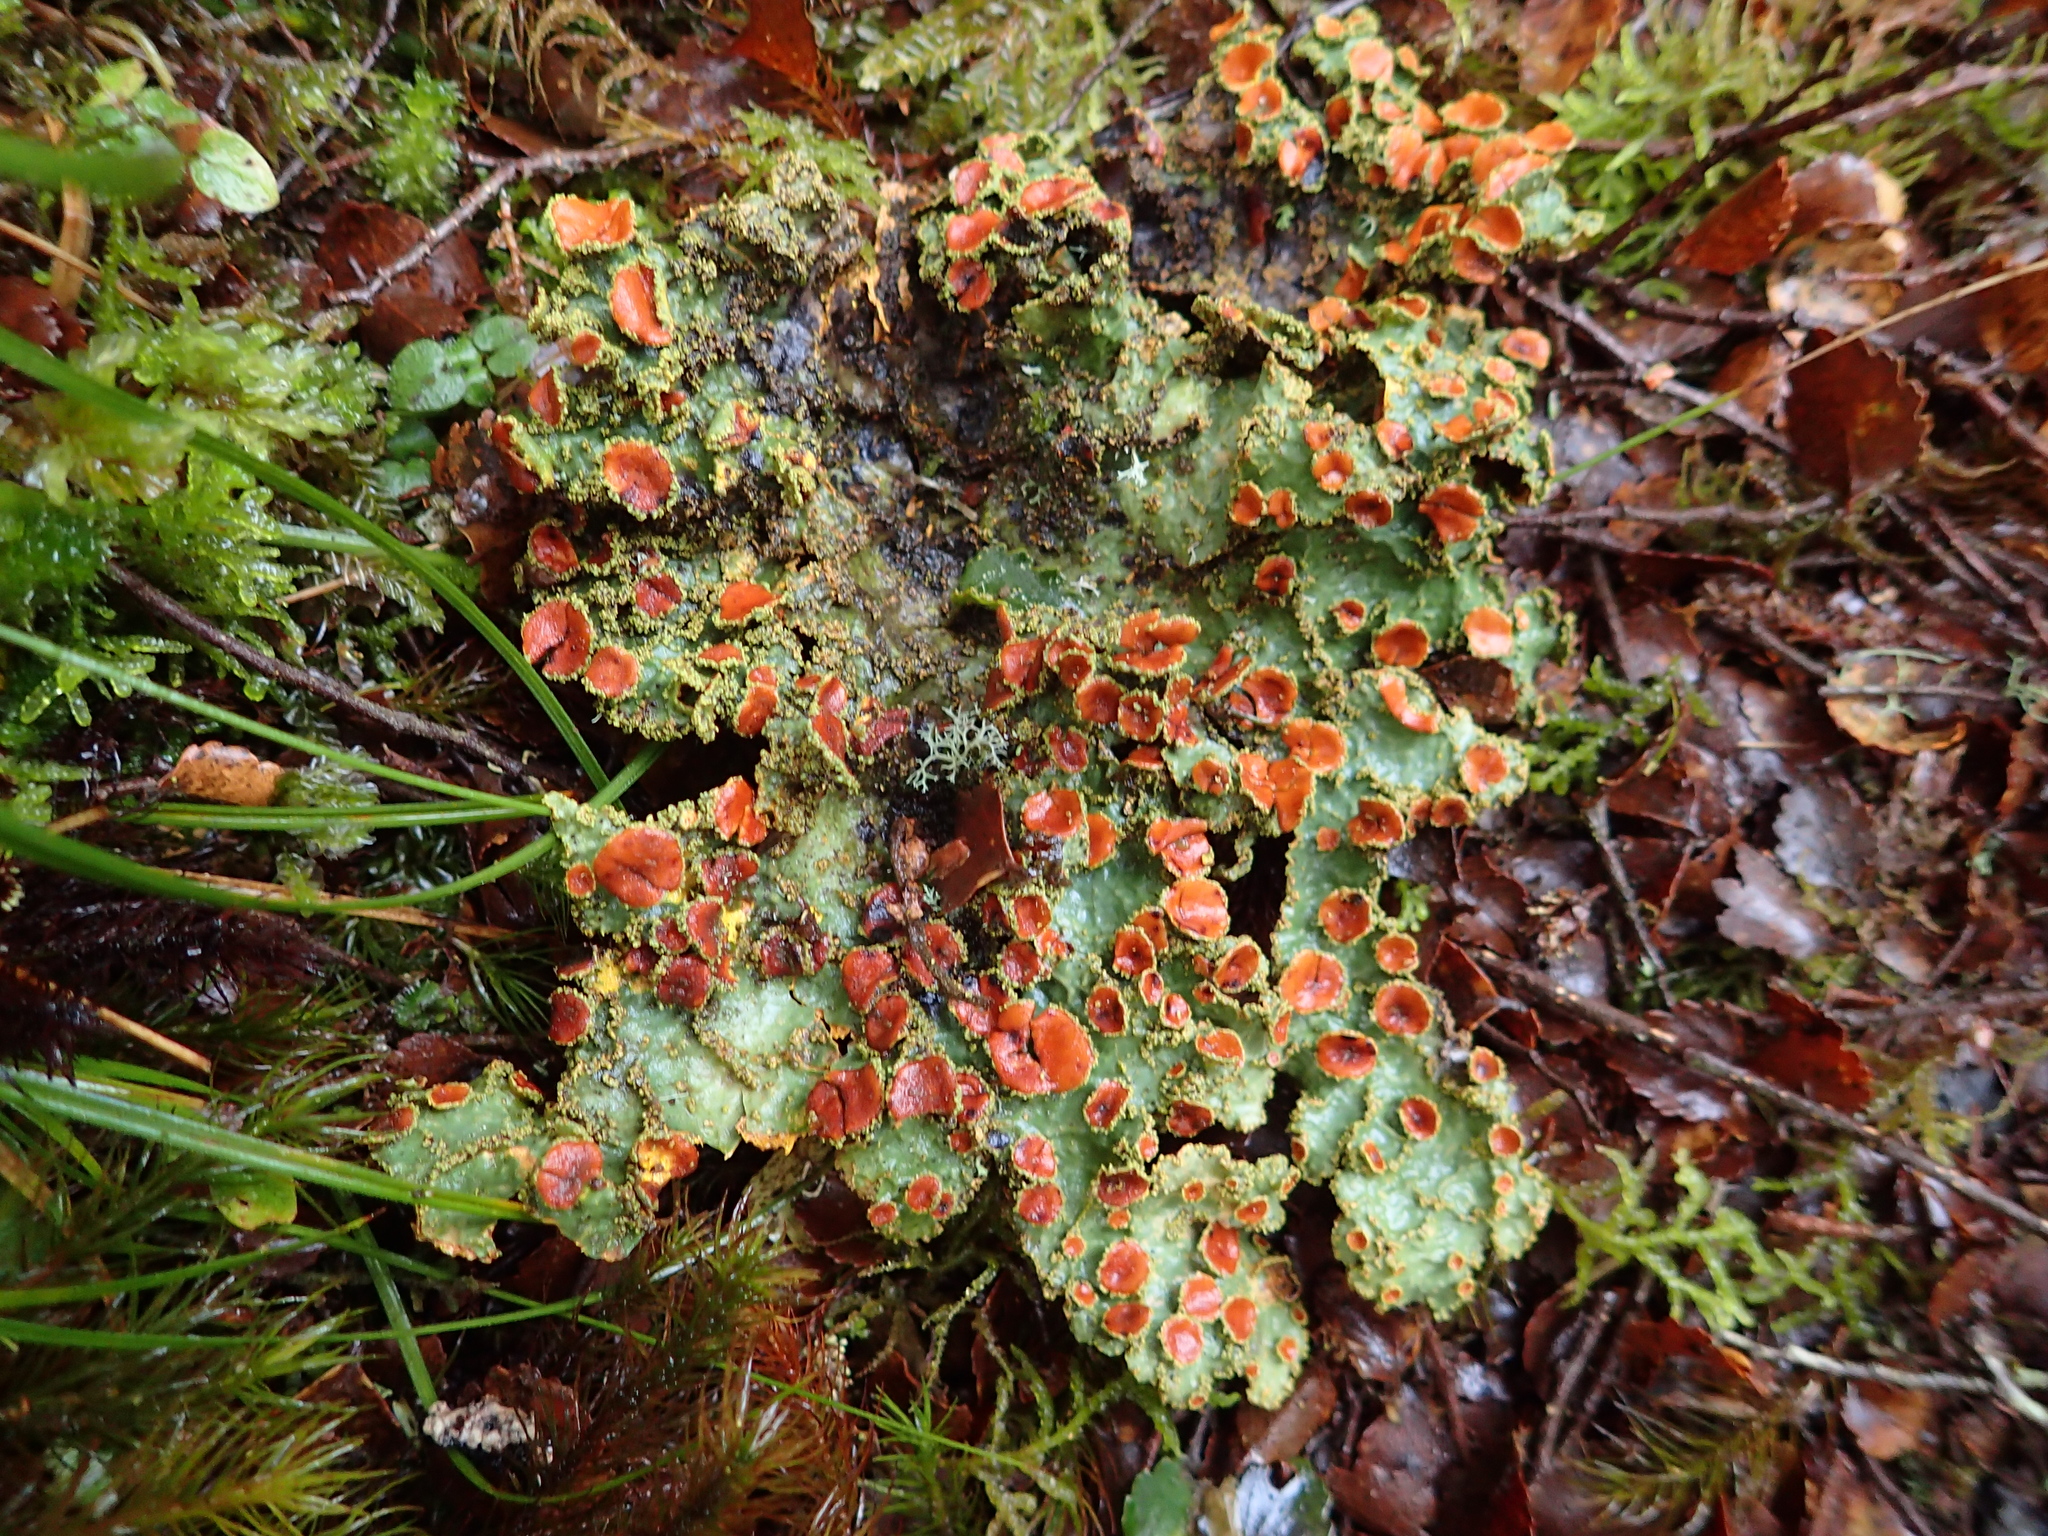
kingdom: Fungi
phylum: Ascomycota
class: Lecanoromycetes
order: Peltigerales
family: Lobariaceae
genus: Yarrumia
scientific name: Yarrumia colensoi
